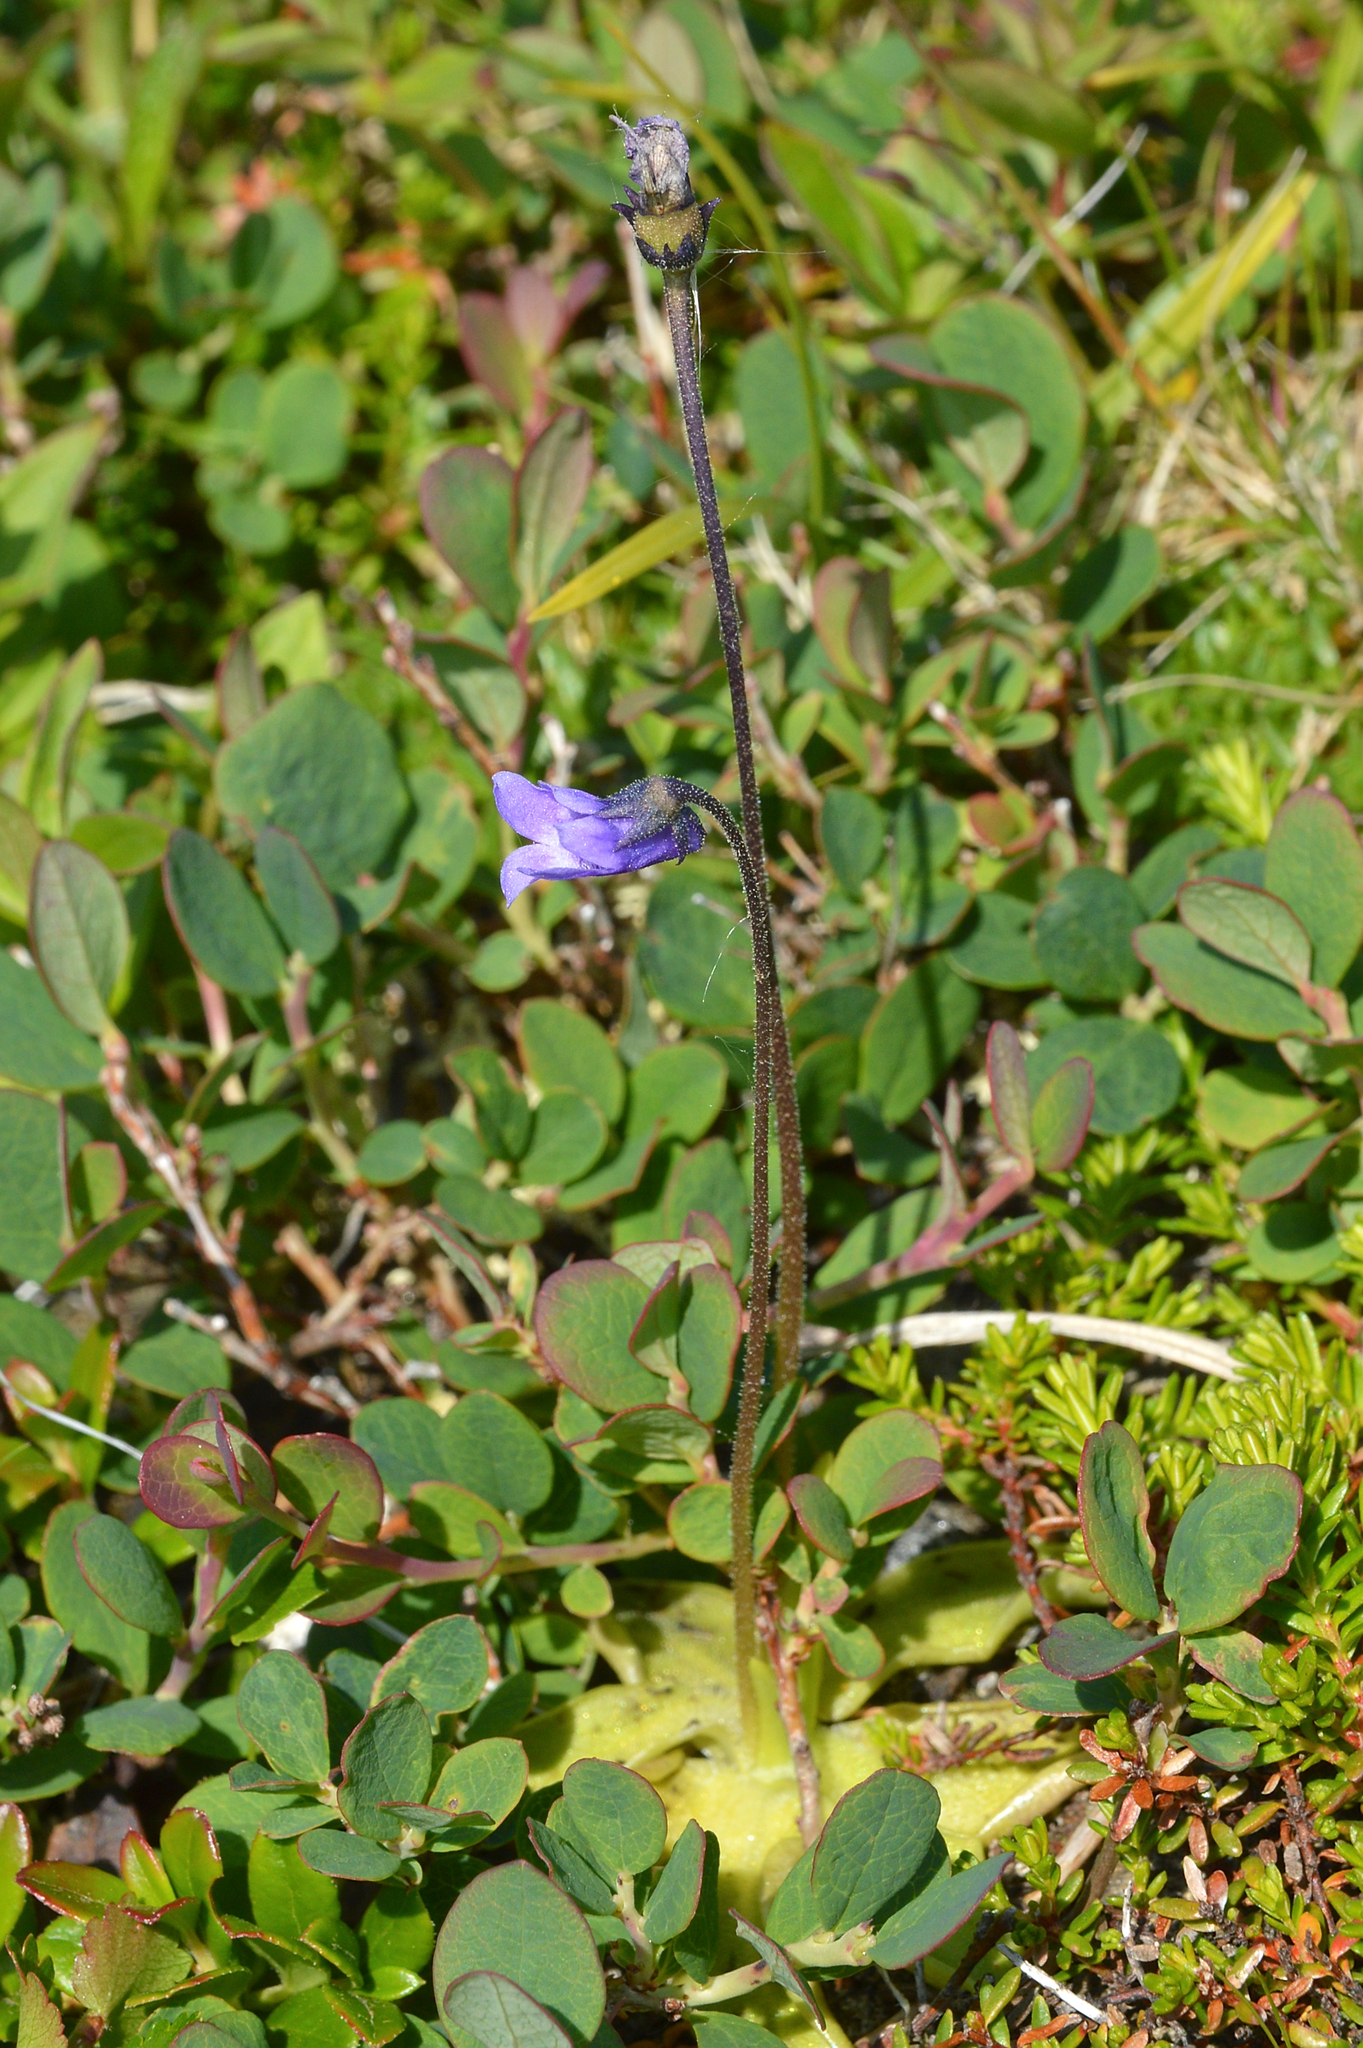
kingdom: Plantae
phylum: Tracheophyta
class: Magnoliopsida
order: Lamiales
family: Lentibulariaceae
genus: Pinguicula
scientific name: Pinguicula vulgaris
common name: Common butterwort
